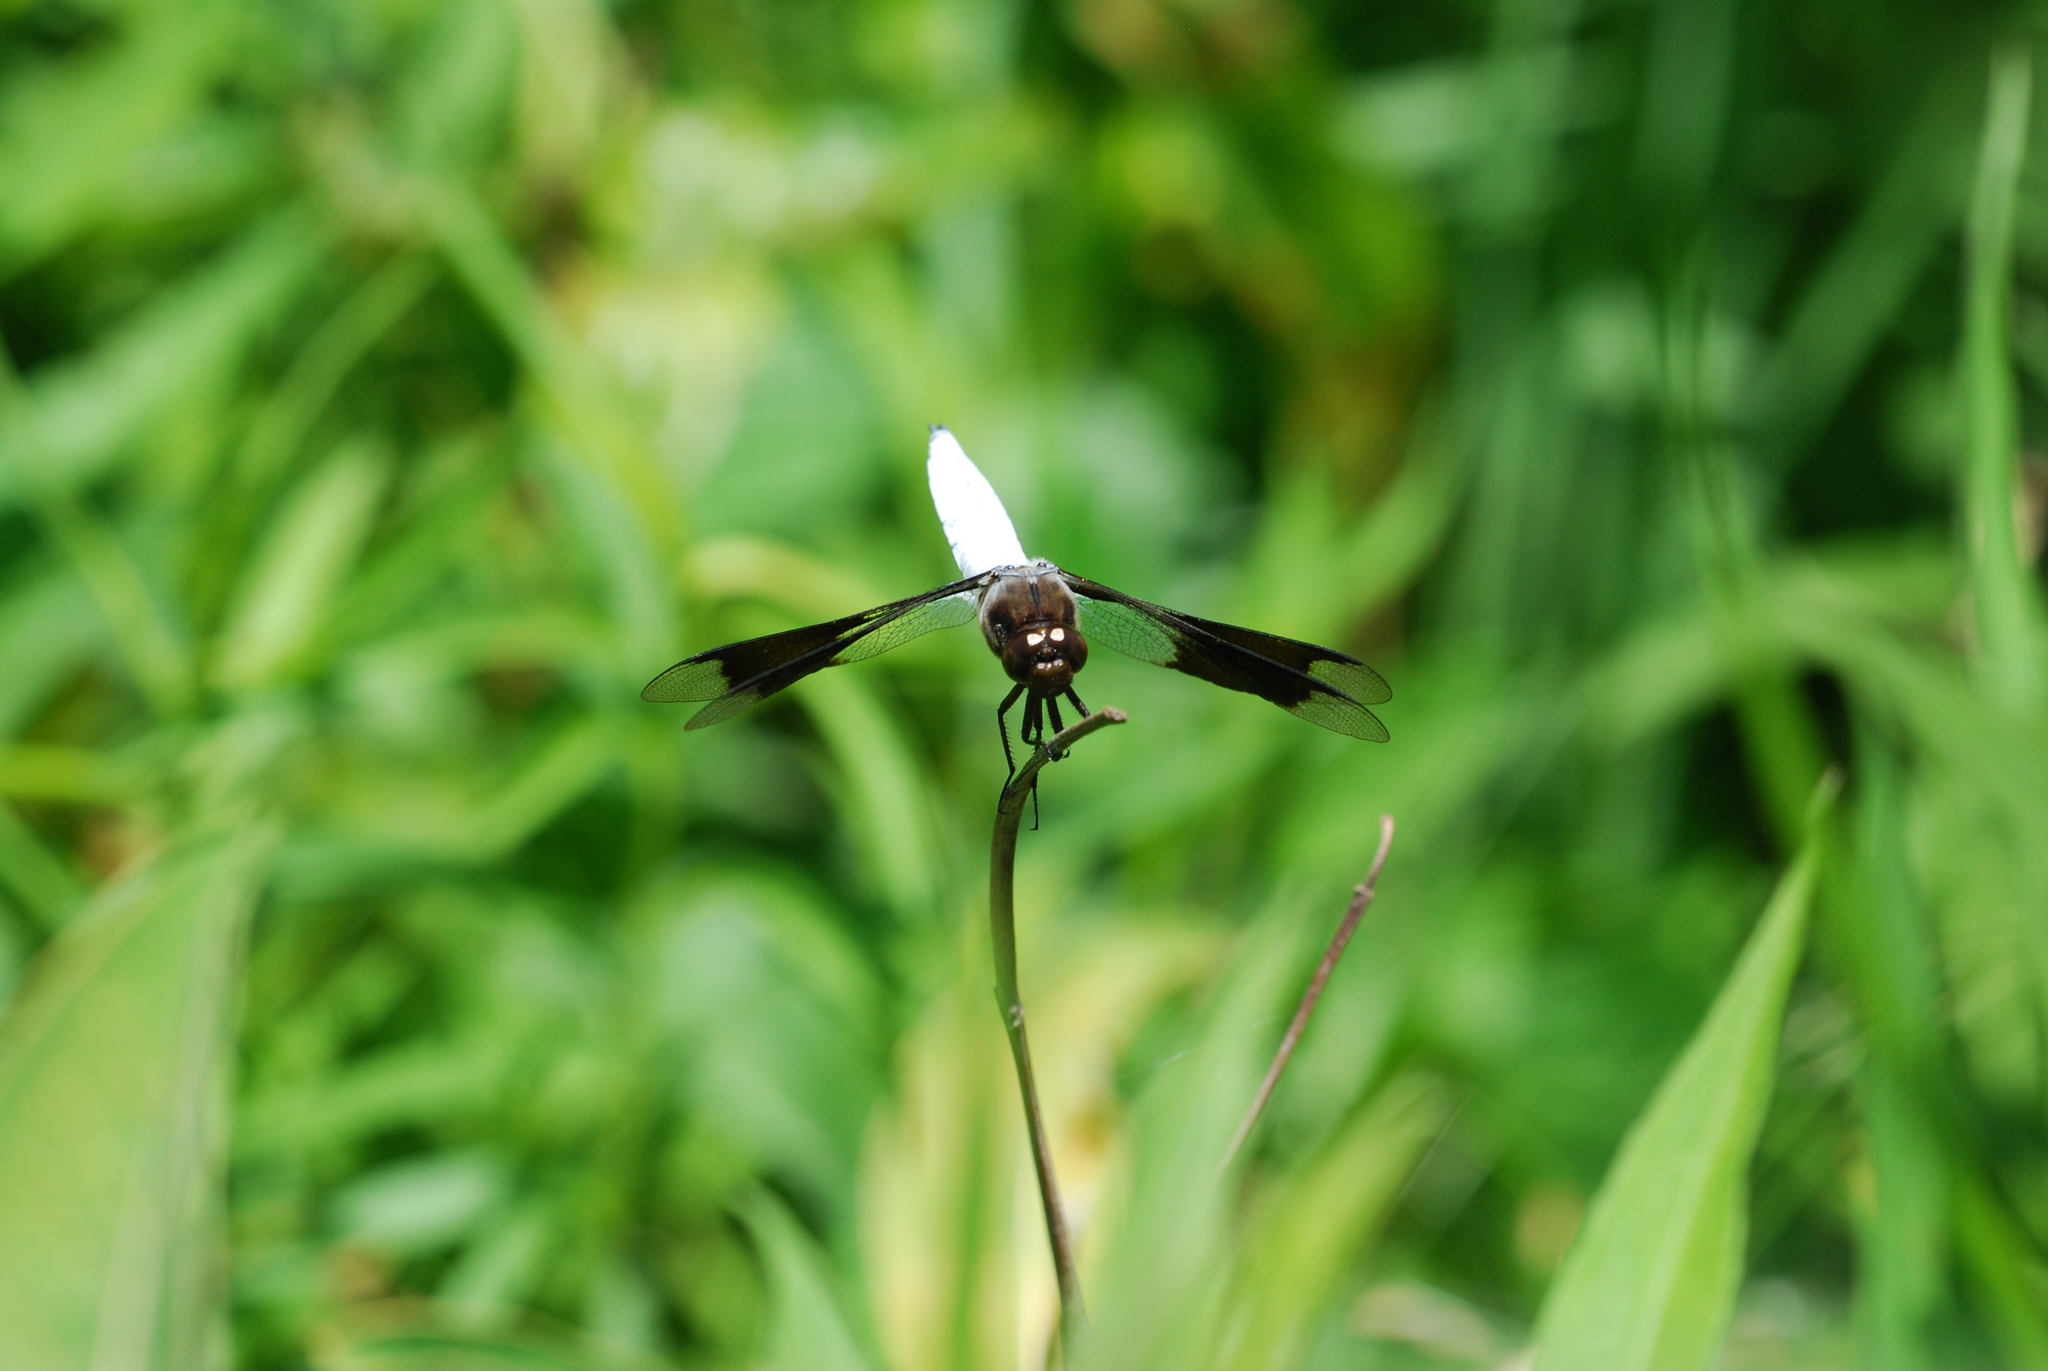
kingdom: Animalia
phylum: Arthropoda
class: Insecta
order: Odonata
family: Libellulidae
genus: Plathemis
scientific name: Plathemis lydia
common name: Common whitetail
